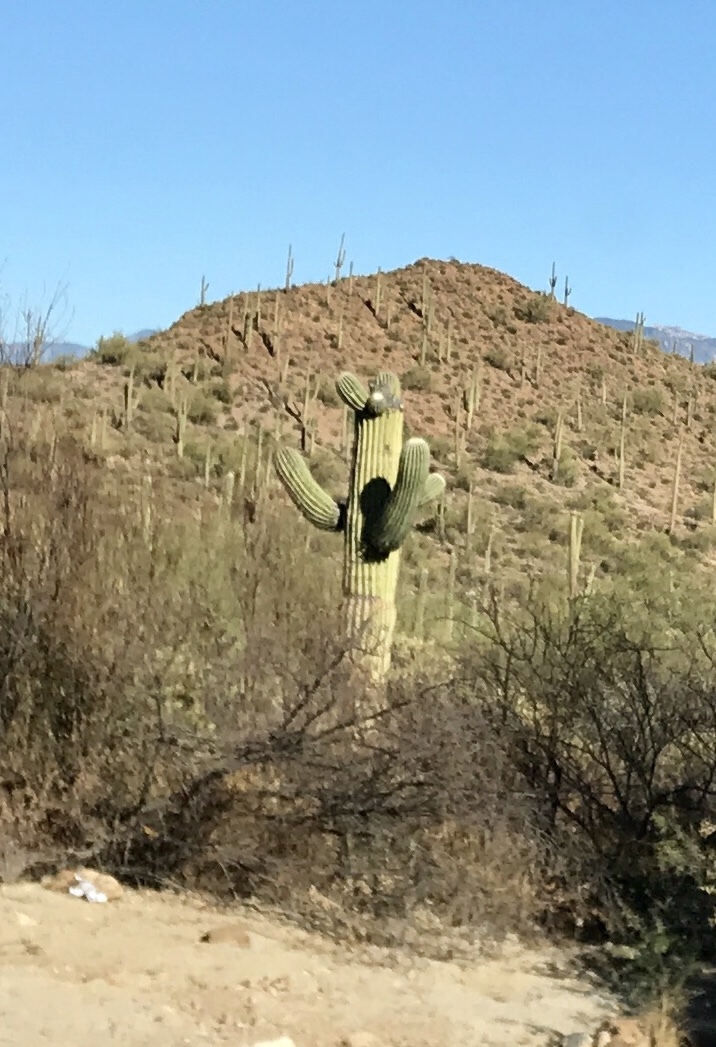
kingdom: Plantae
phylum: Tracheophyta
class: Magnoliopsida
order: Caryophyllales
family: Cactaceae
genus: Carnegiea
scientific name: Carnegiea gigantea
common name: Saguaro
